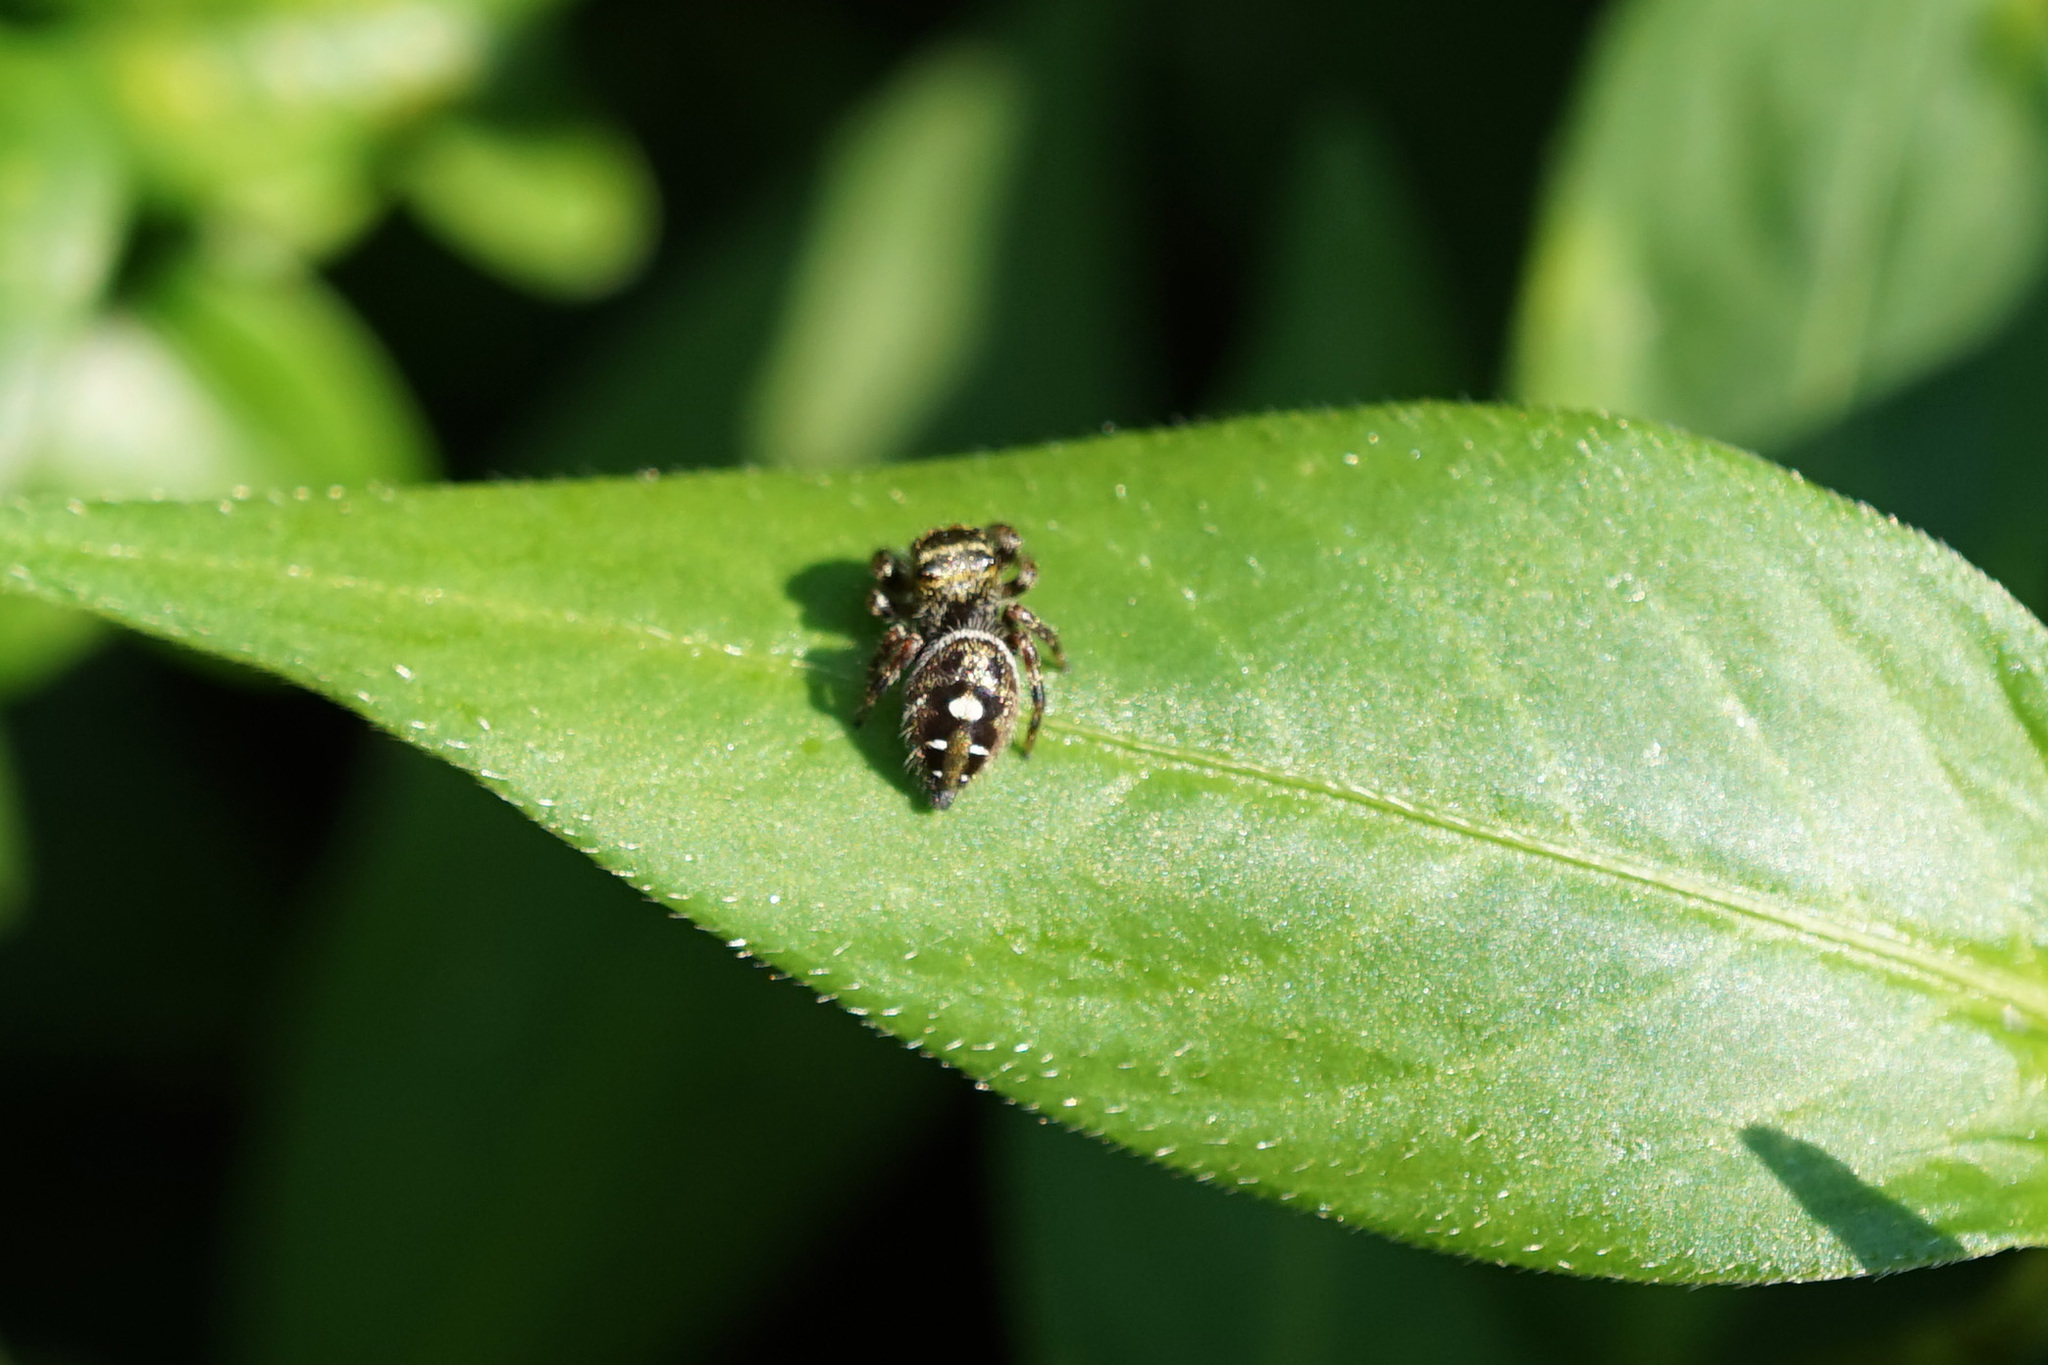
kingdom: Animalia
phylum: Arthropoda
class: Arachnida
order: Araneae
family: Salticidae
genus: Phidippus
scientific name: Phidippus audax
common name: Bold jumper
